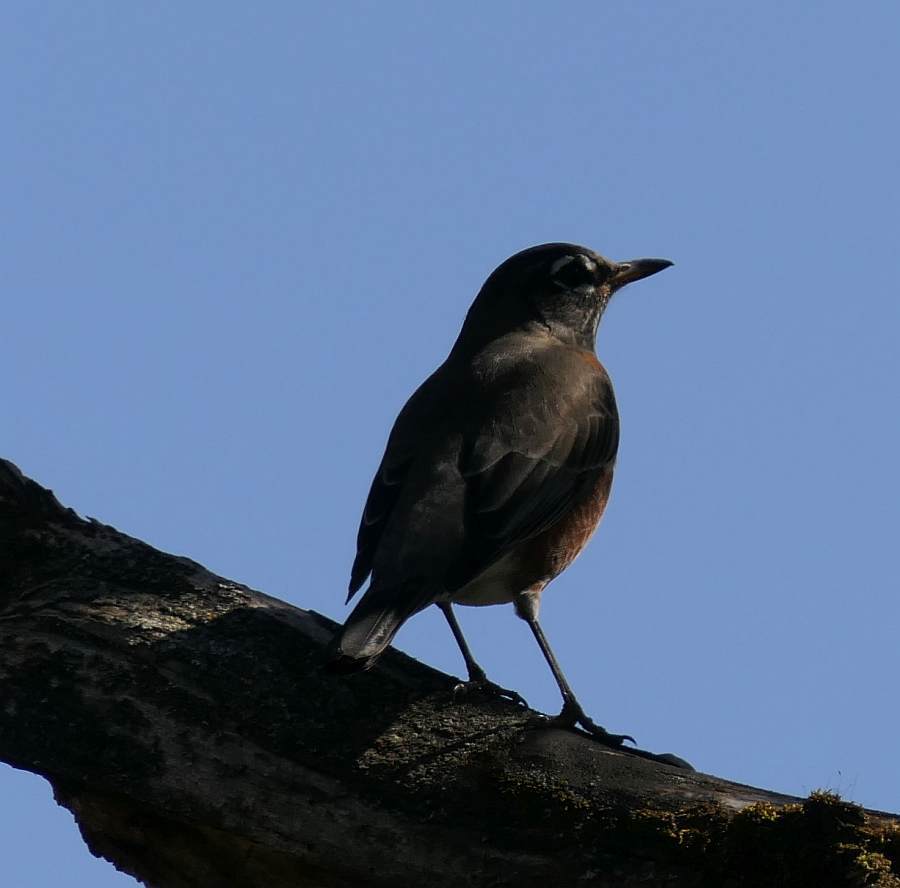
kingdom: Animalia
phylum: Chordata
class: Aves
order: Passeriformes
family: Turdidae
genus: Turdus
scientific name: Turdus migratorius
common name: American robin
